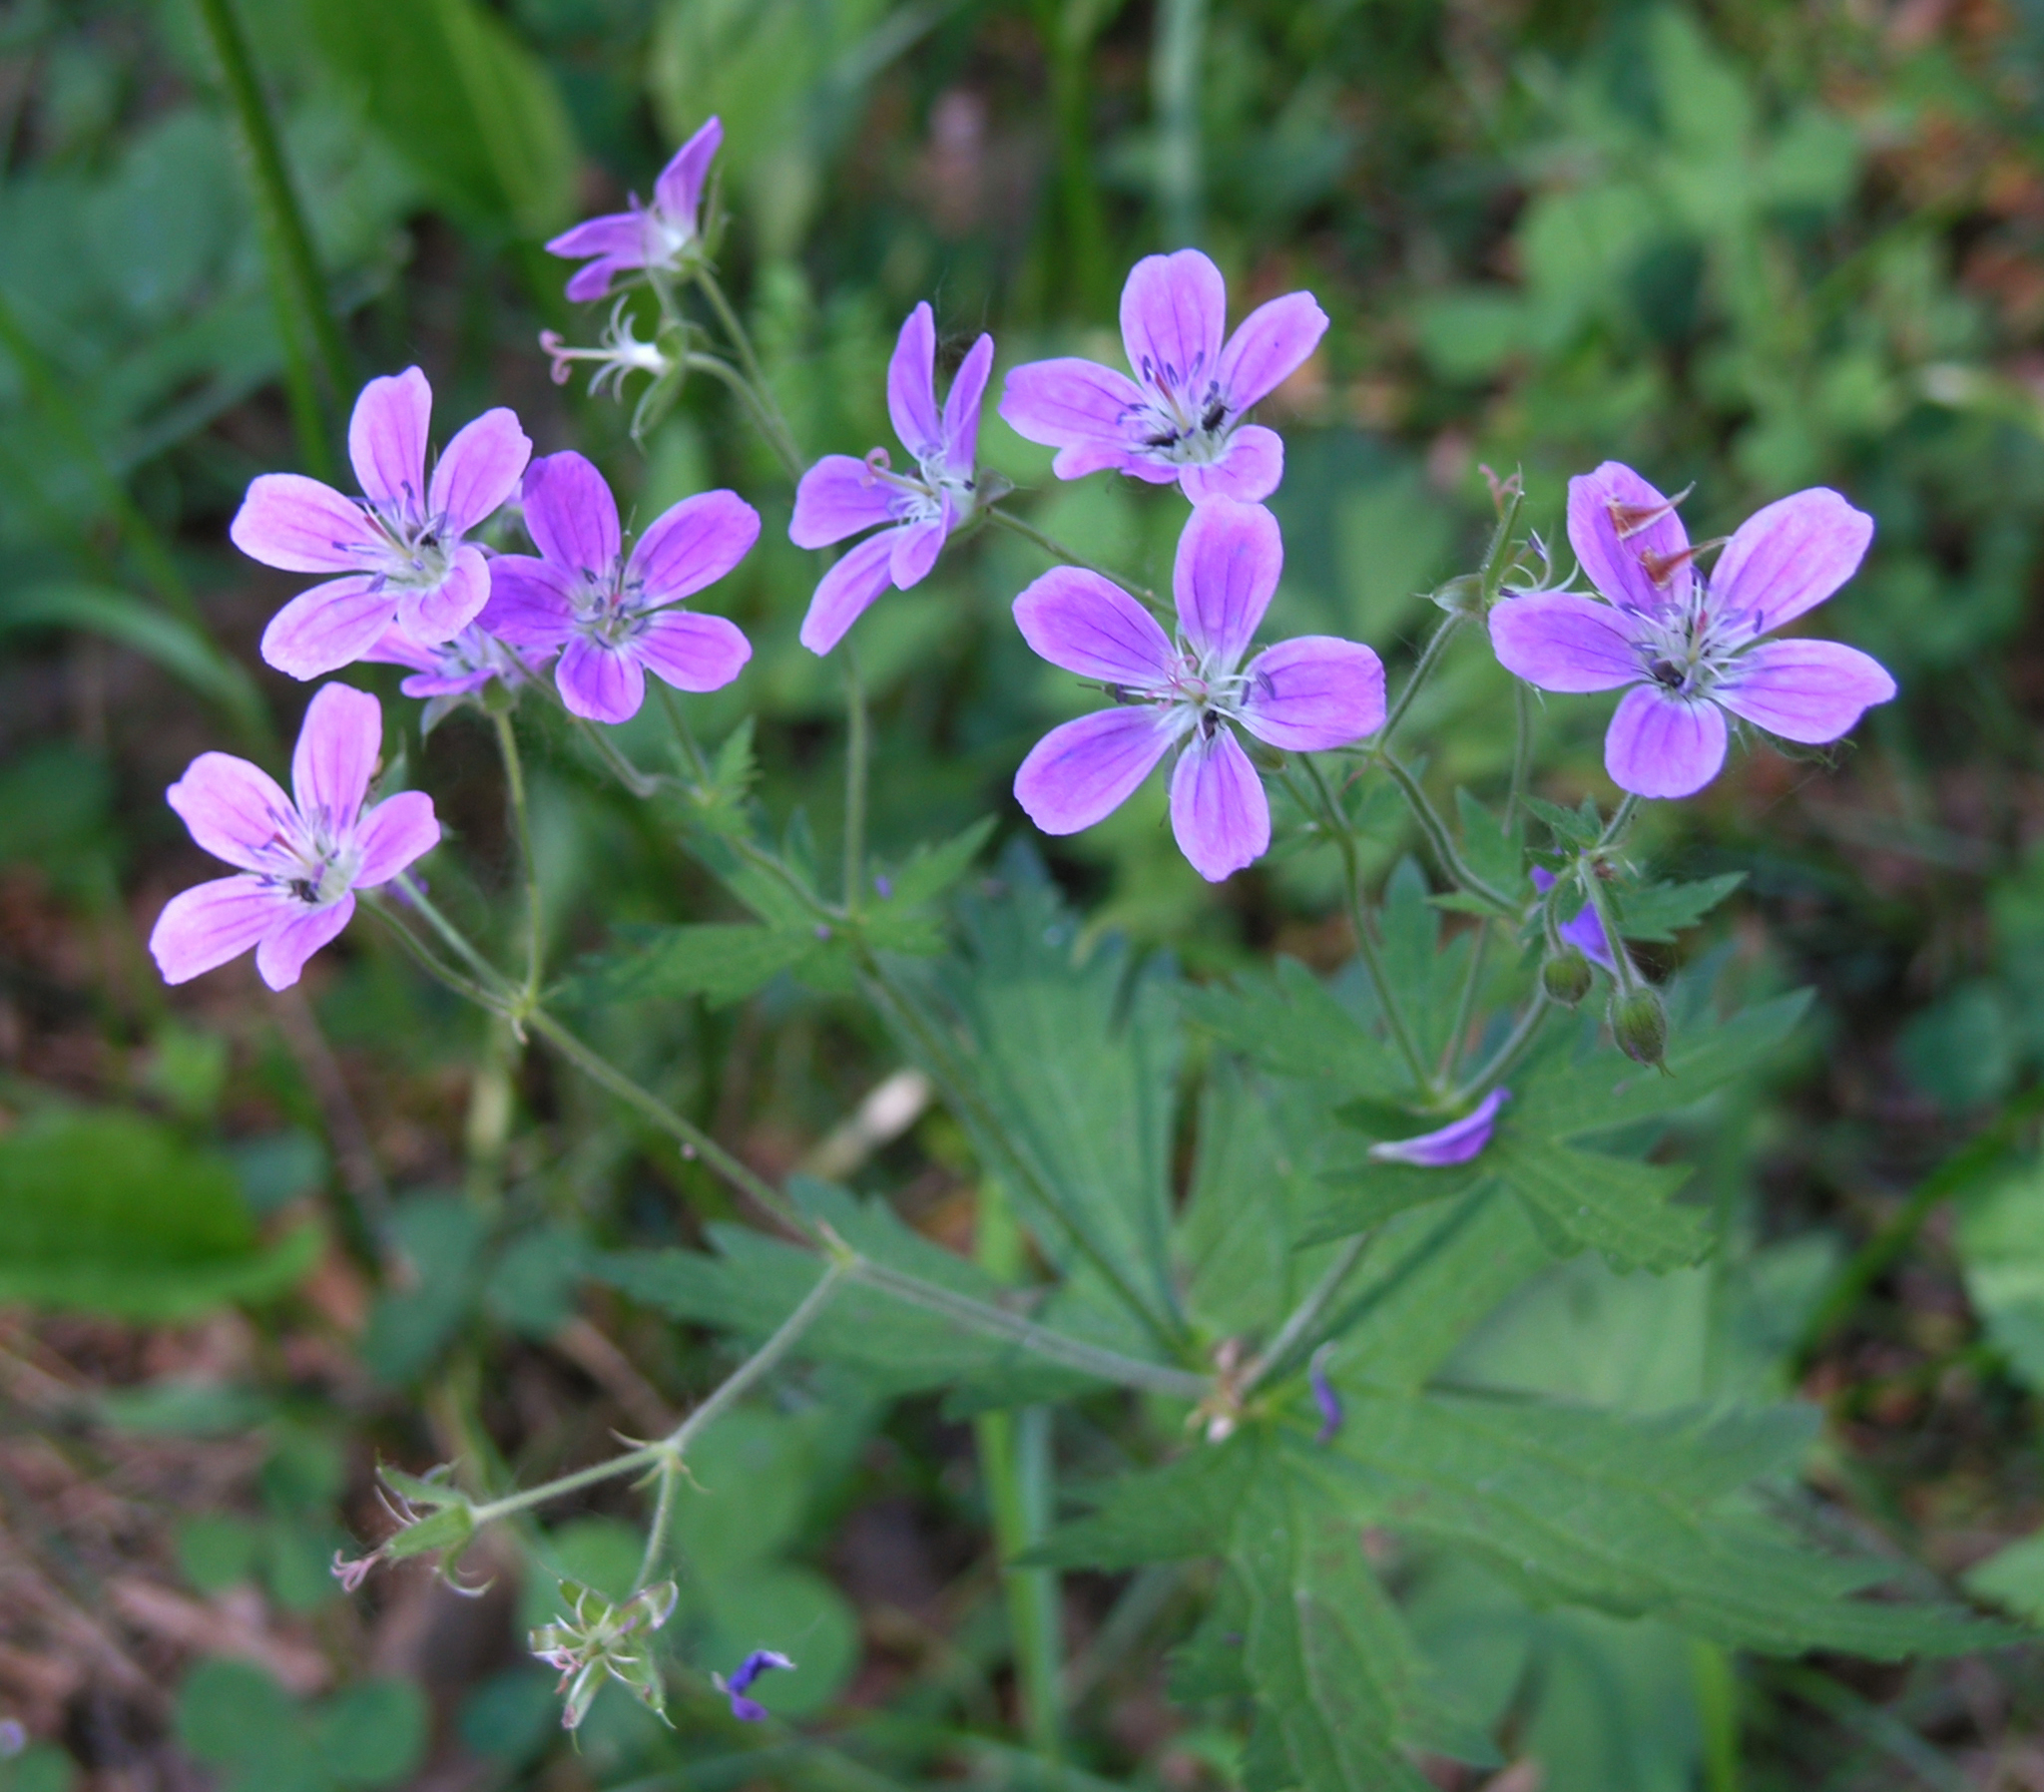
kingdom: Plantae
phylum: Tracheophyta
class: Magnoliopsida
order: Geraniales
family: Geraniaceae
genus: Geranium
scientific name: Geranium sylvaticum
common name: Wood crane's-bill
